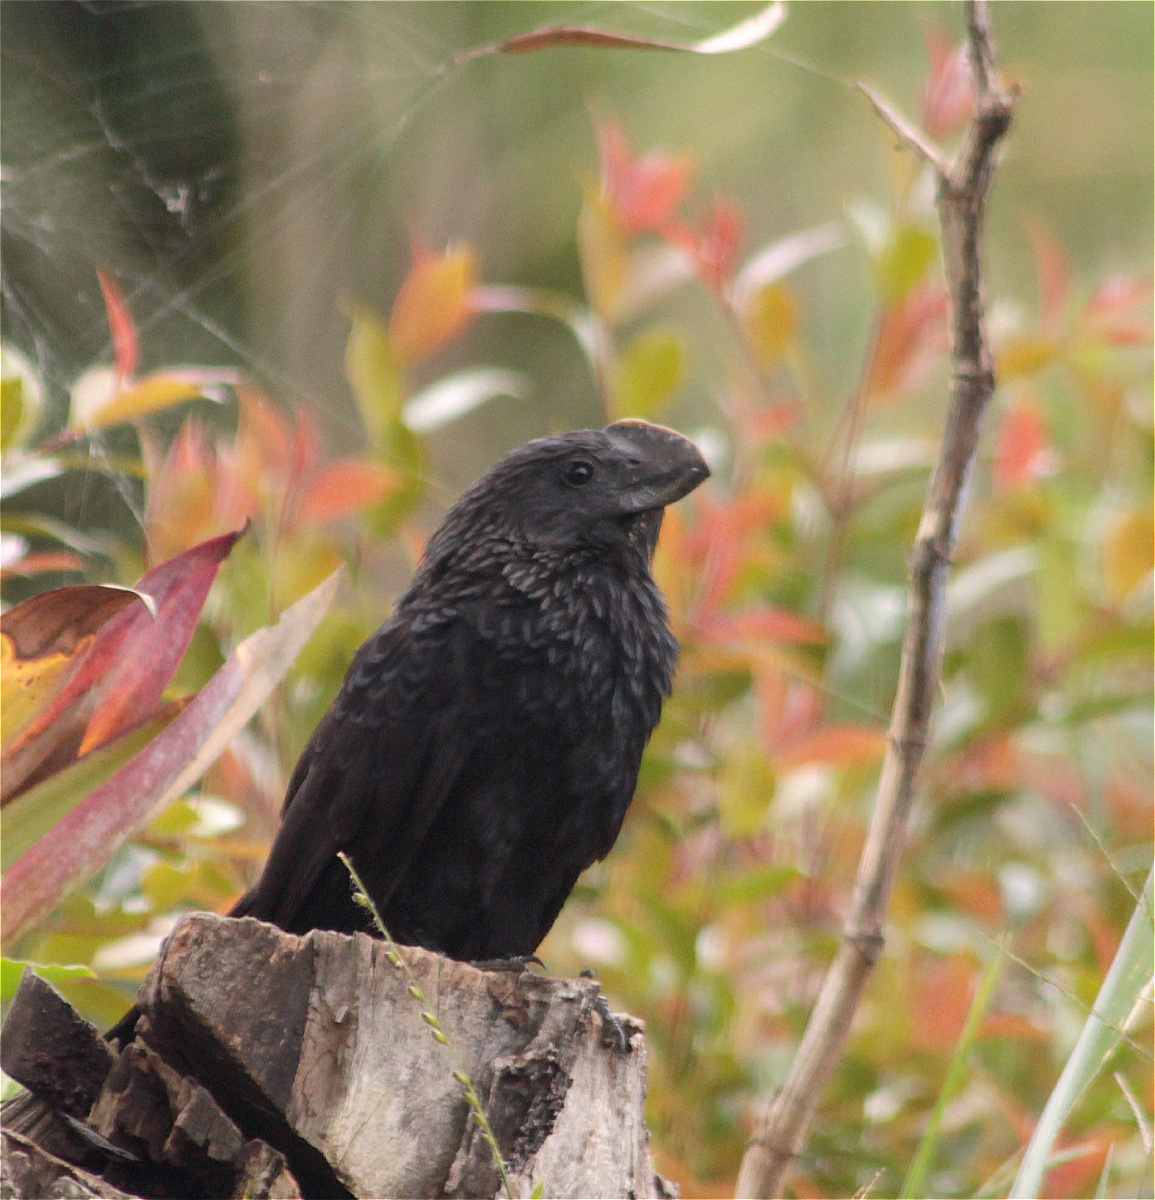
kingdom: Animalia
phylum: Chordata
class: Aves
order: Cuculiformes
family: Cuculidae
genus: Crotophaga
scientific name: Crotophaga ani
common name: Smooth-billed ani
